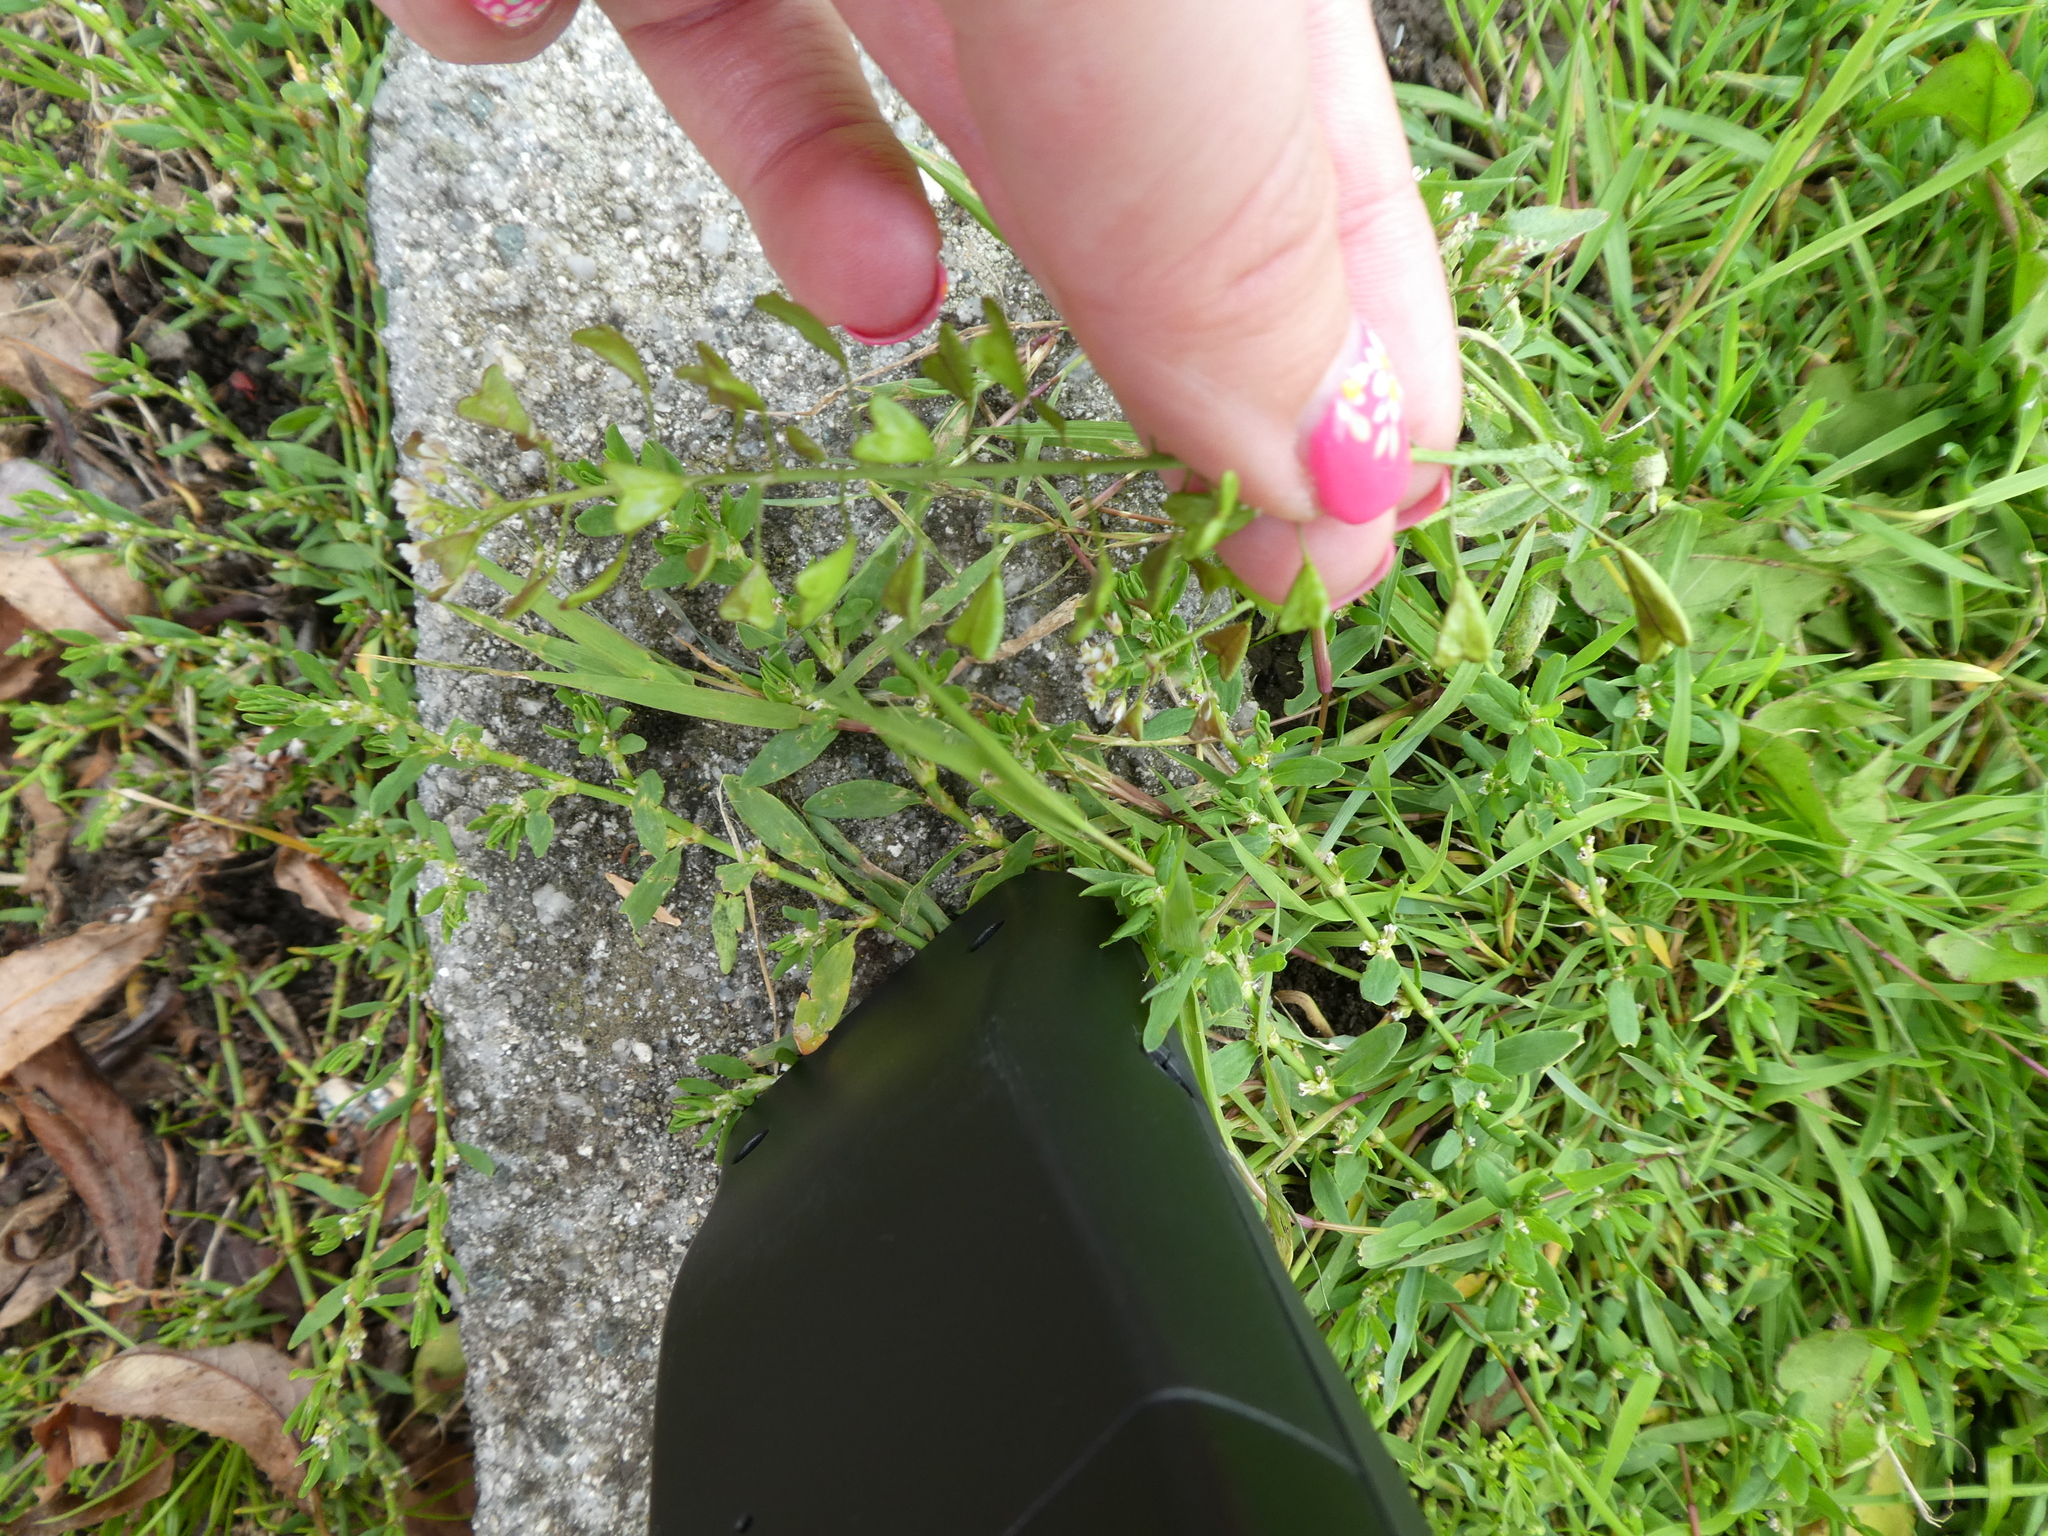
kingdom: Plantae
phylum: Tracheophyta
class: Magnoliopsida
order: Brassicales
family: Brassicaceae
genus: Capsella
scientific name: Capsella bursa-pastoris
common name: Shepherd's purse
